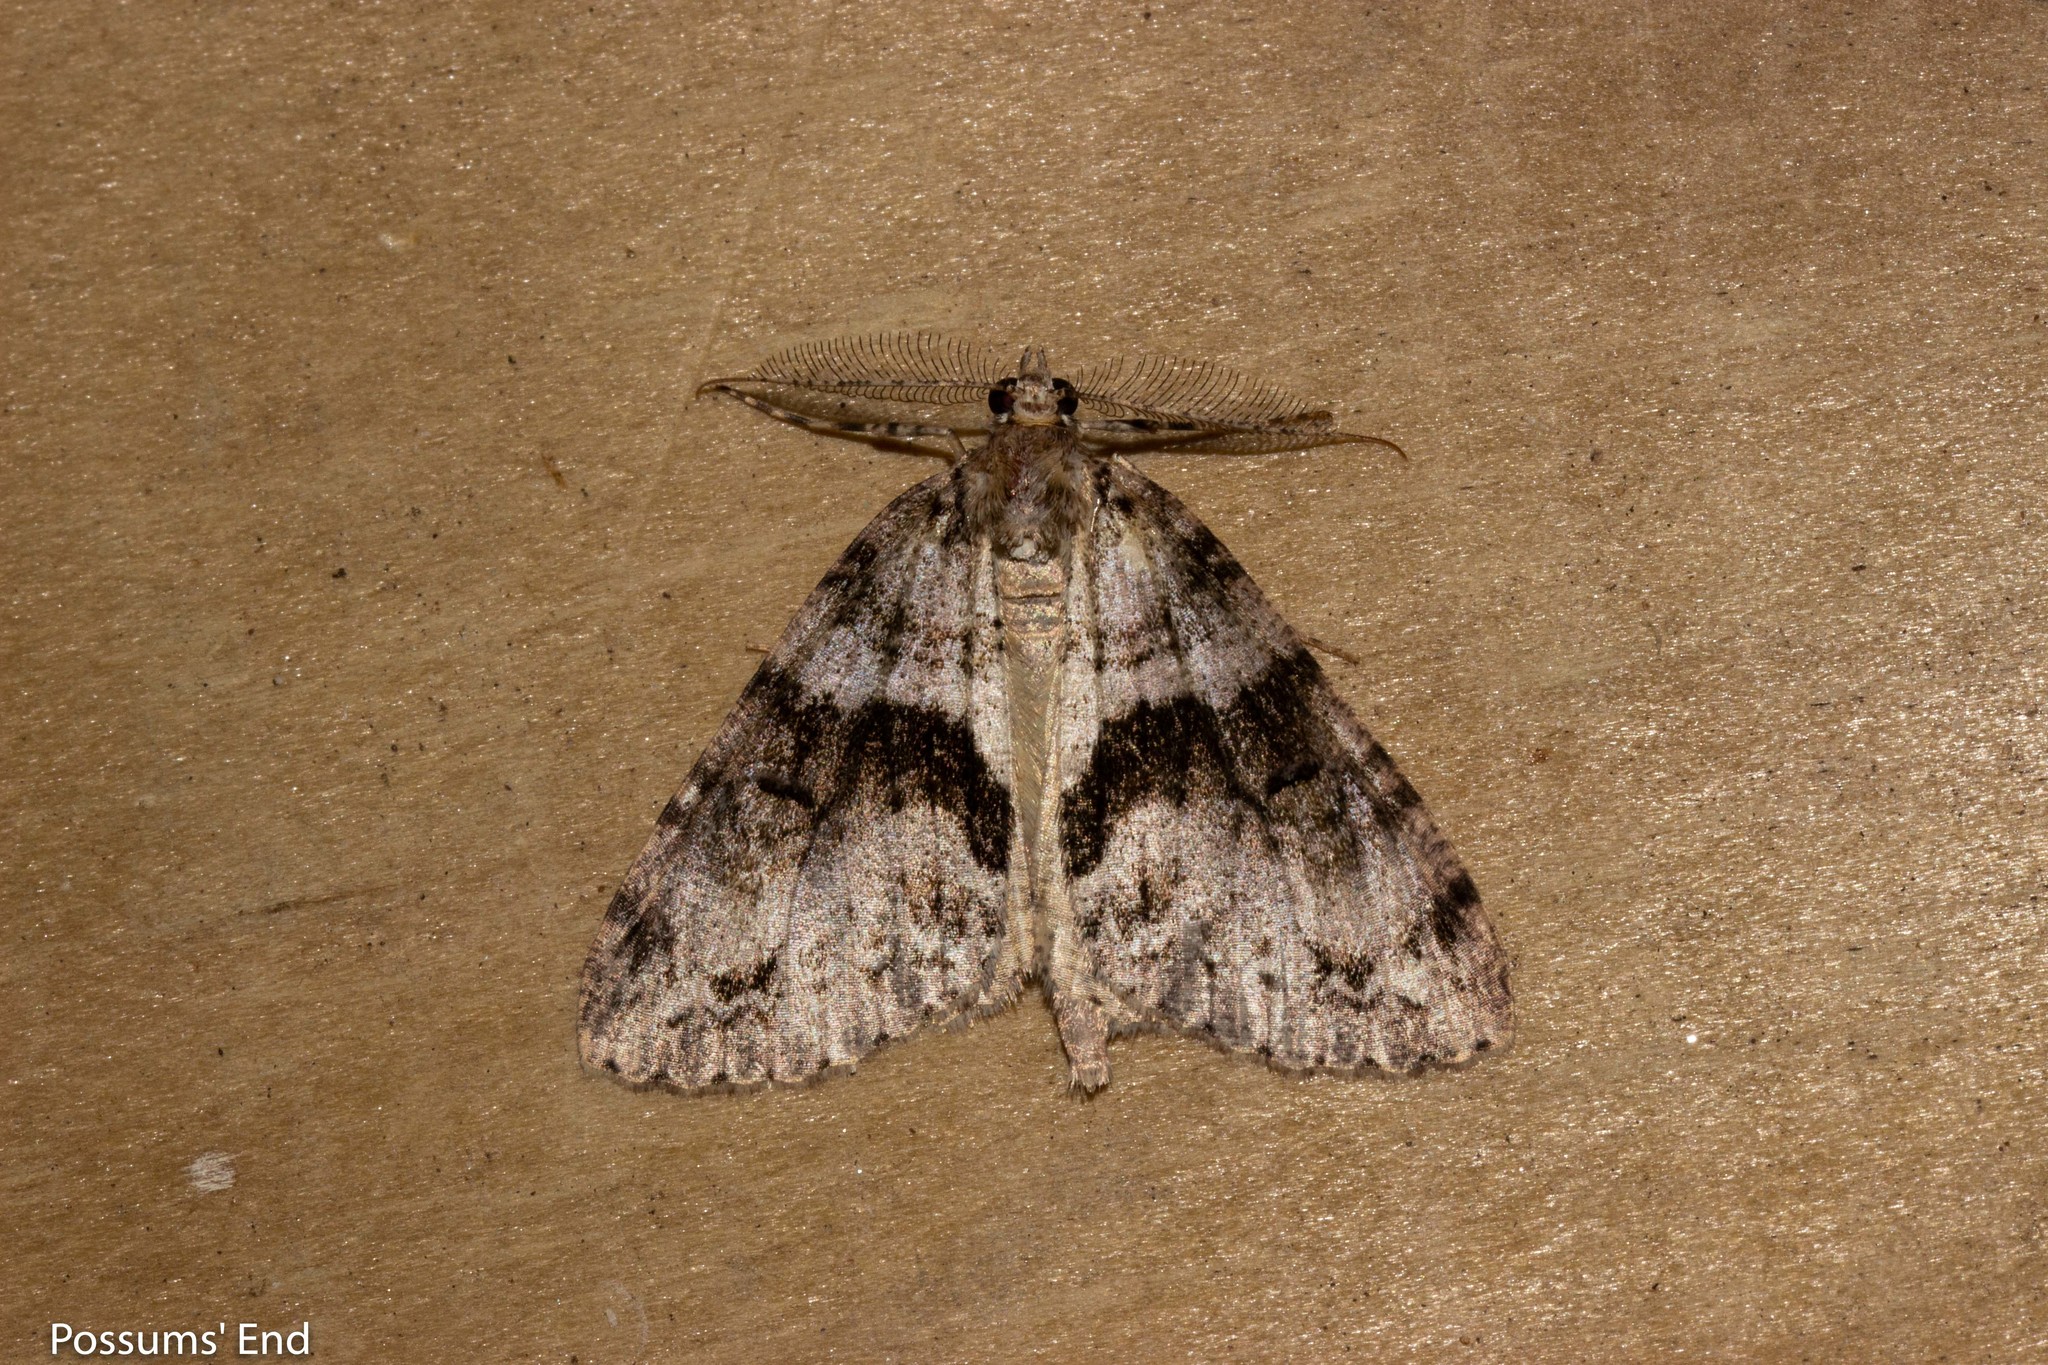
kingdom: Animalia
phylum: Arthropoda
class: Insecta
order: Lepidoptera
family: Geometridae
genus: Pseudocoremia
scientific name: Pseudocoremia suavis
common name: Common forest looper
